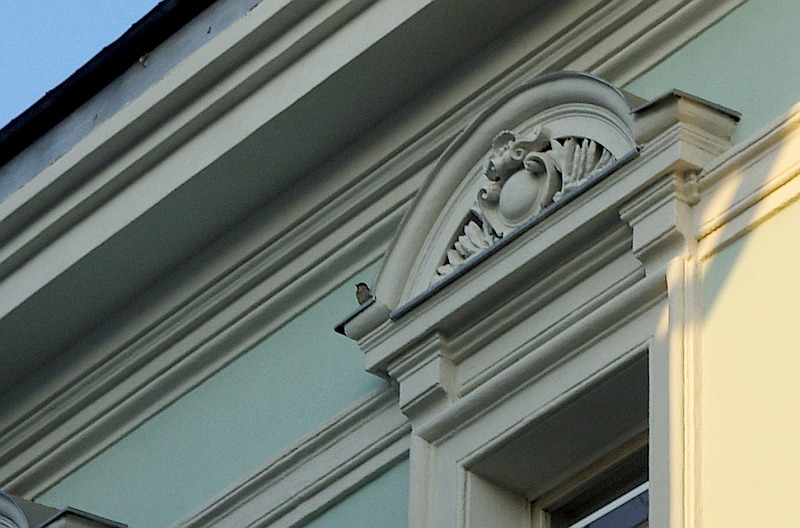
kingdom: Animalia
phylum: Chordata
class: Aves
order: Passeriformes
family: Passeridae
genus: Passer
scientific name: Passer domesticus
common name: House sparrow
